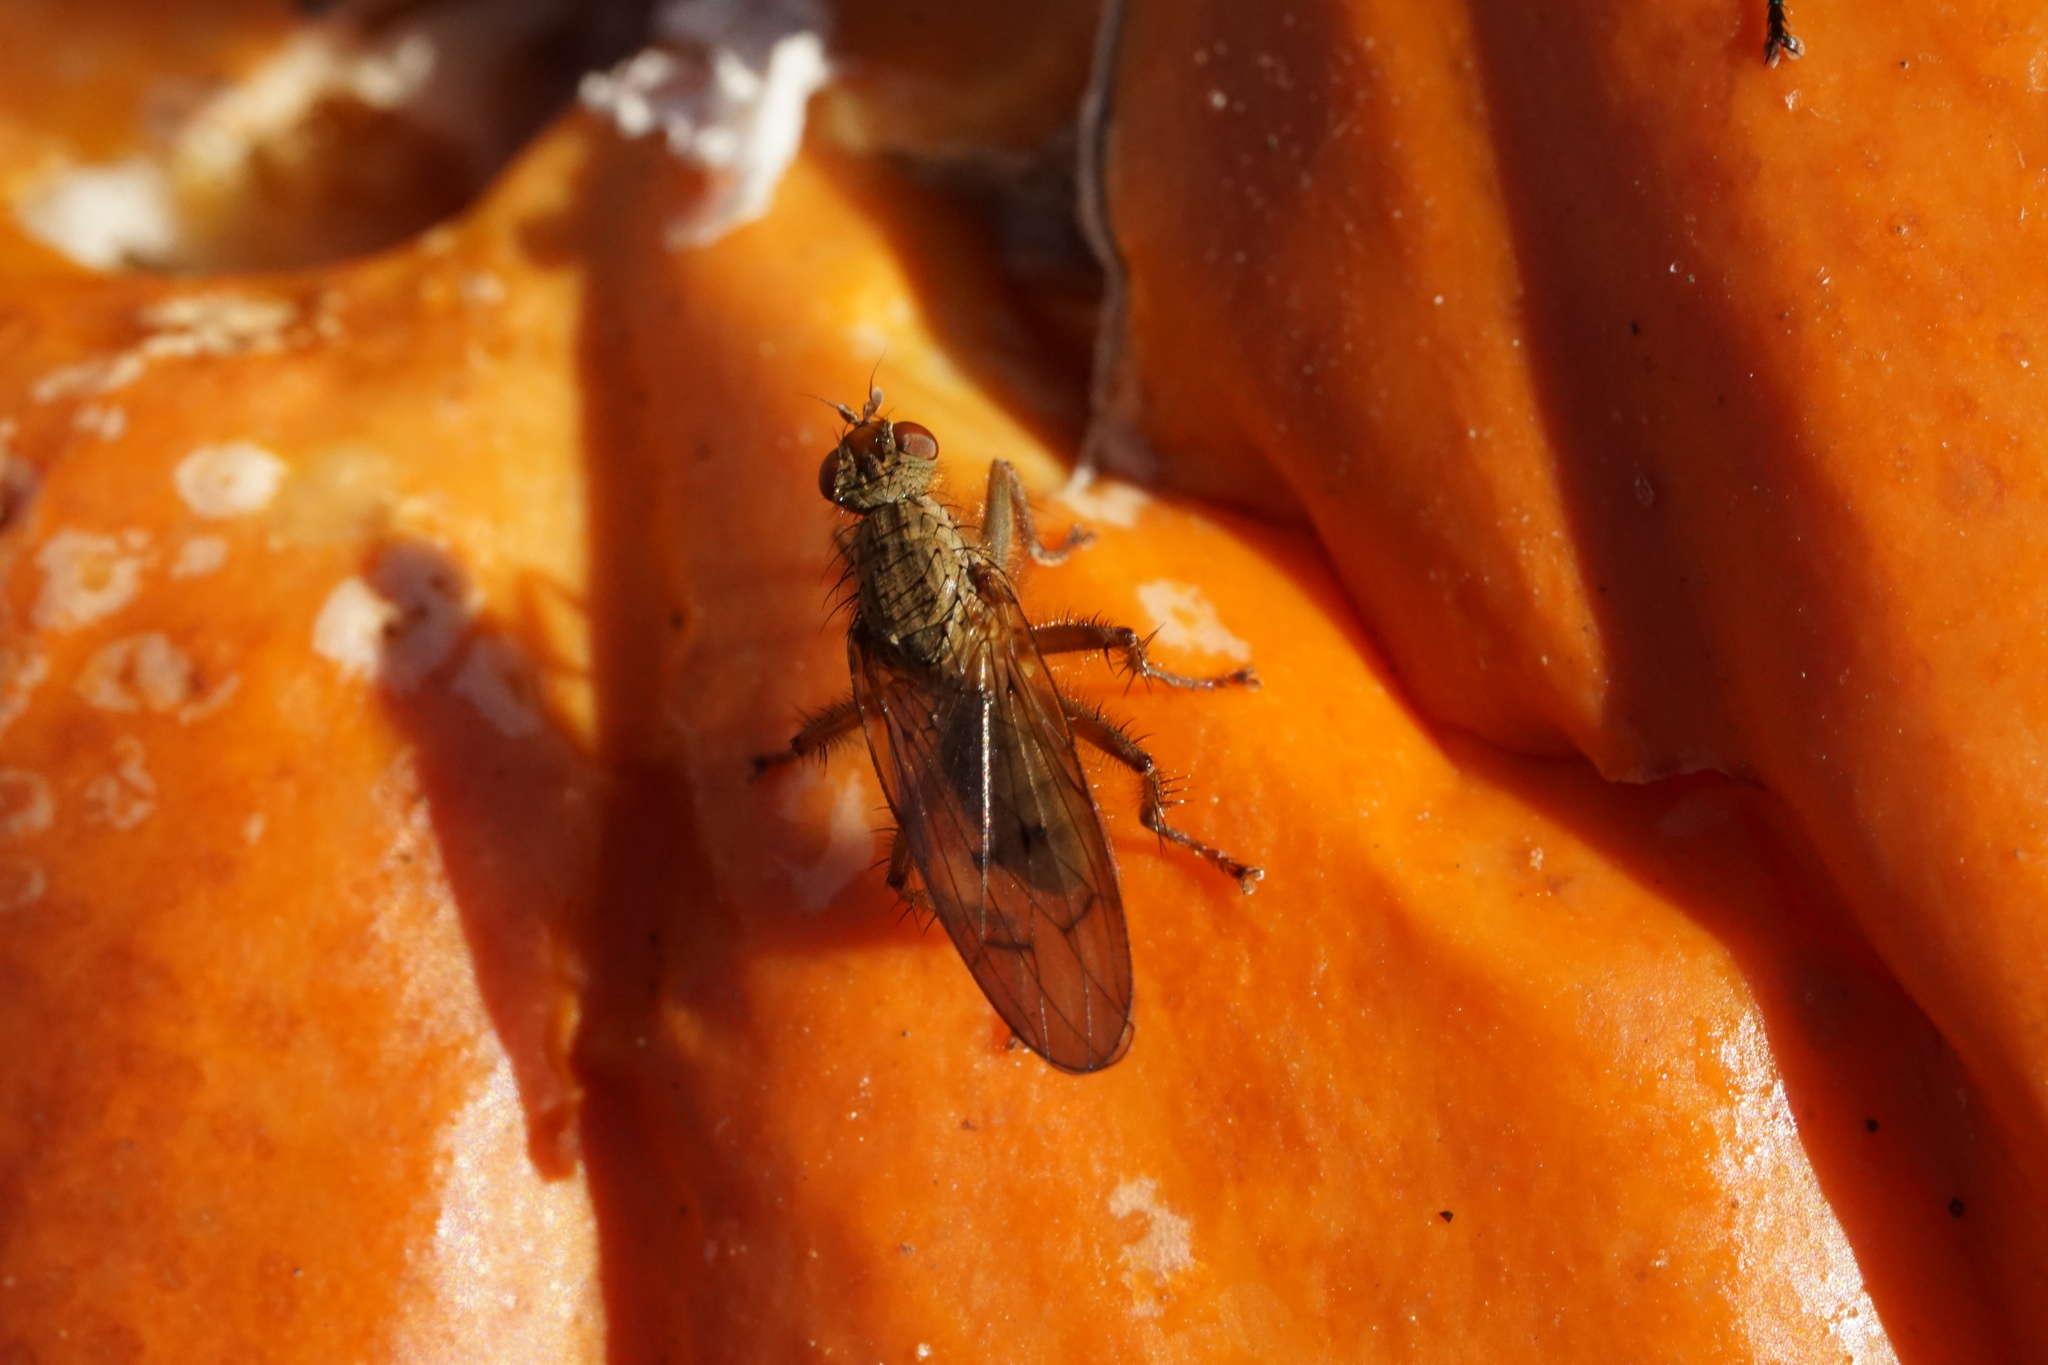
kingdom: Animalia
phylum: Arthropoda
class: Insecta
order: Diptera
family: Scathophagidae
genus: Scathophaga
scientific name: Scathophaga stercoraria
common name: Yellow dung fly
